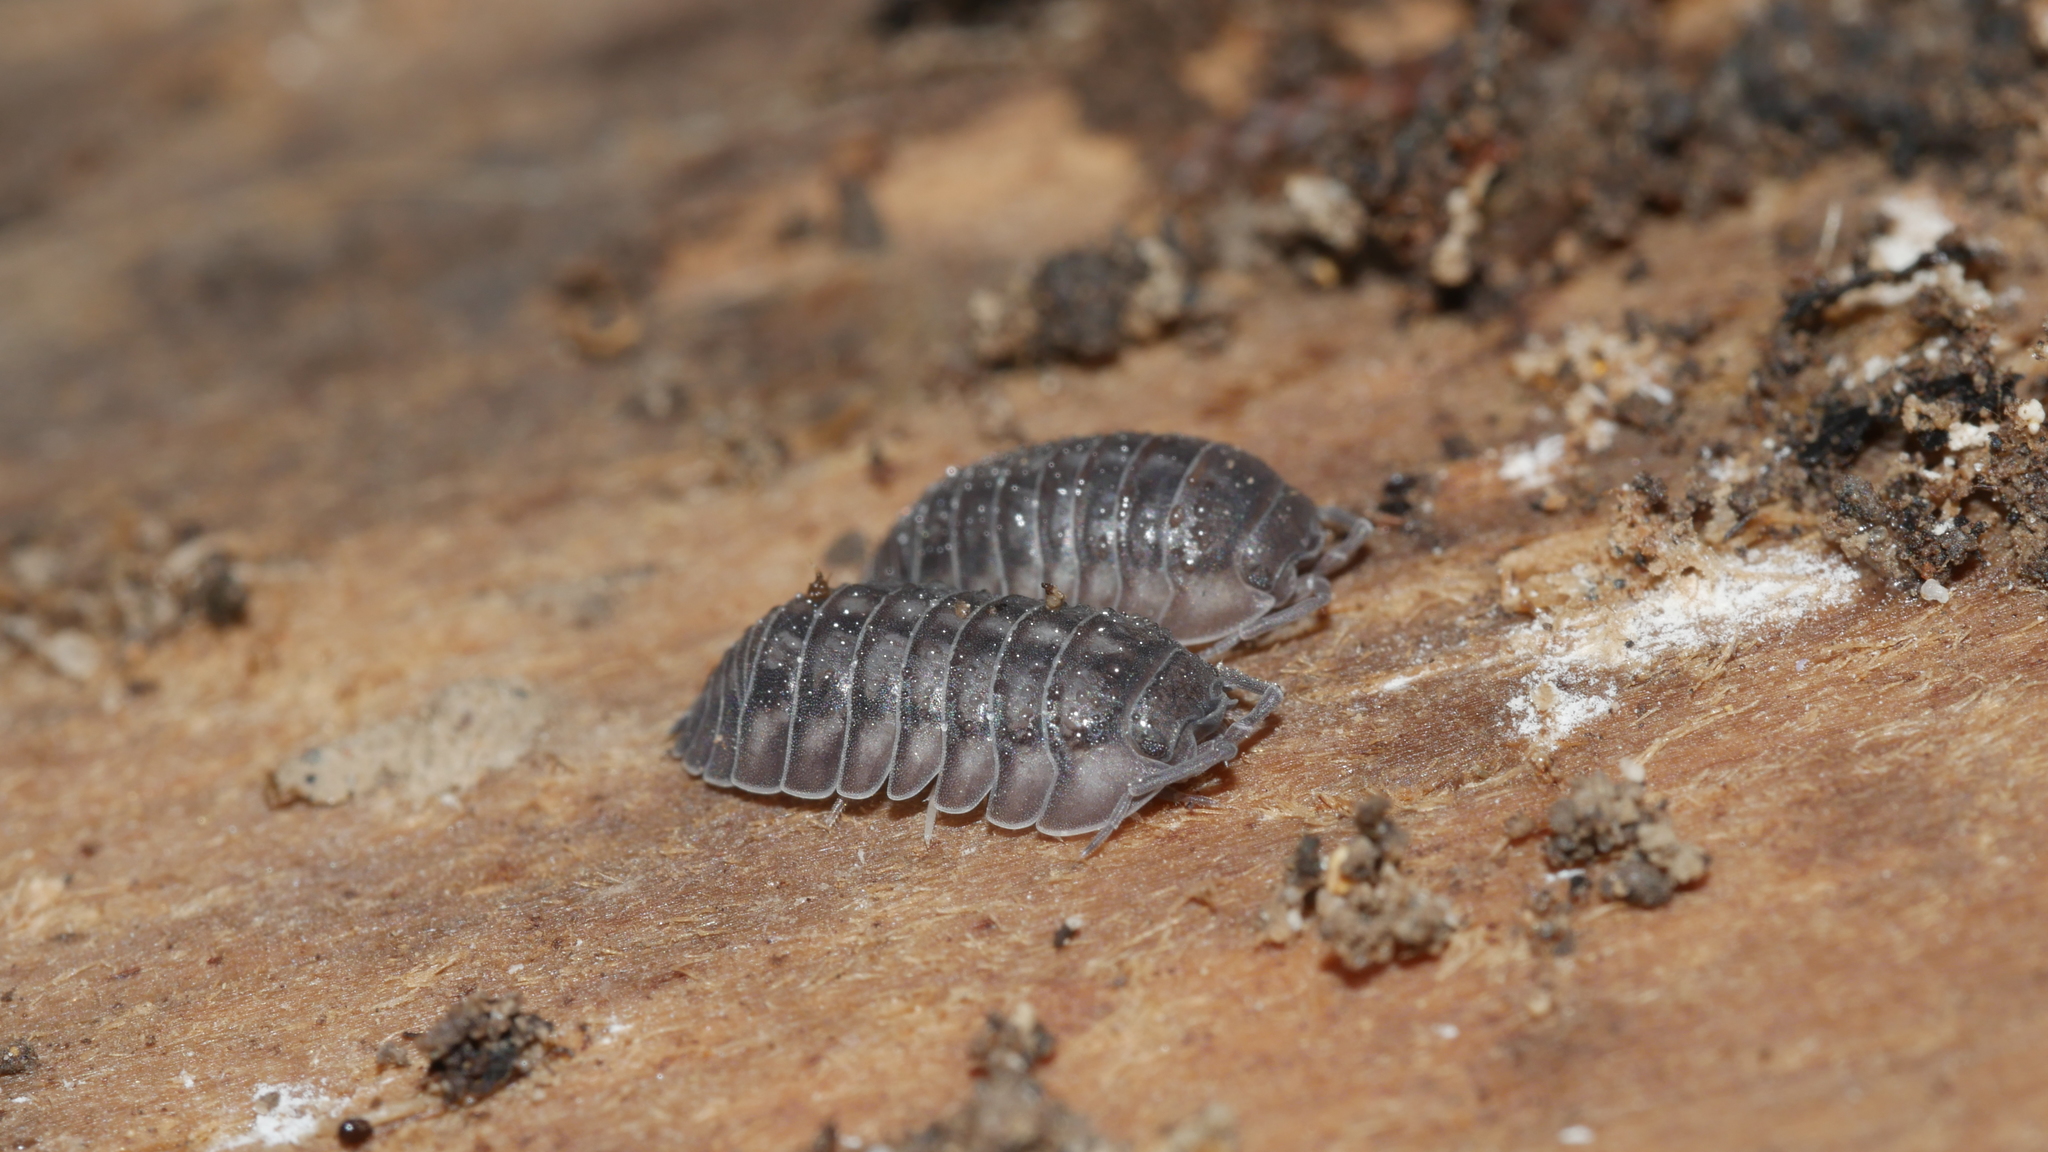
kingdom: Animalia
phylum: Arthropoda
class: Malacostraca
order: Isopoda
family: Armadillidiidae
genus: Armadillidium
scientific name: Armadillidium nasatum
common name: Isopod
